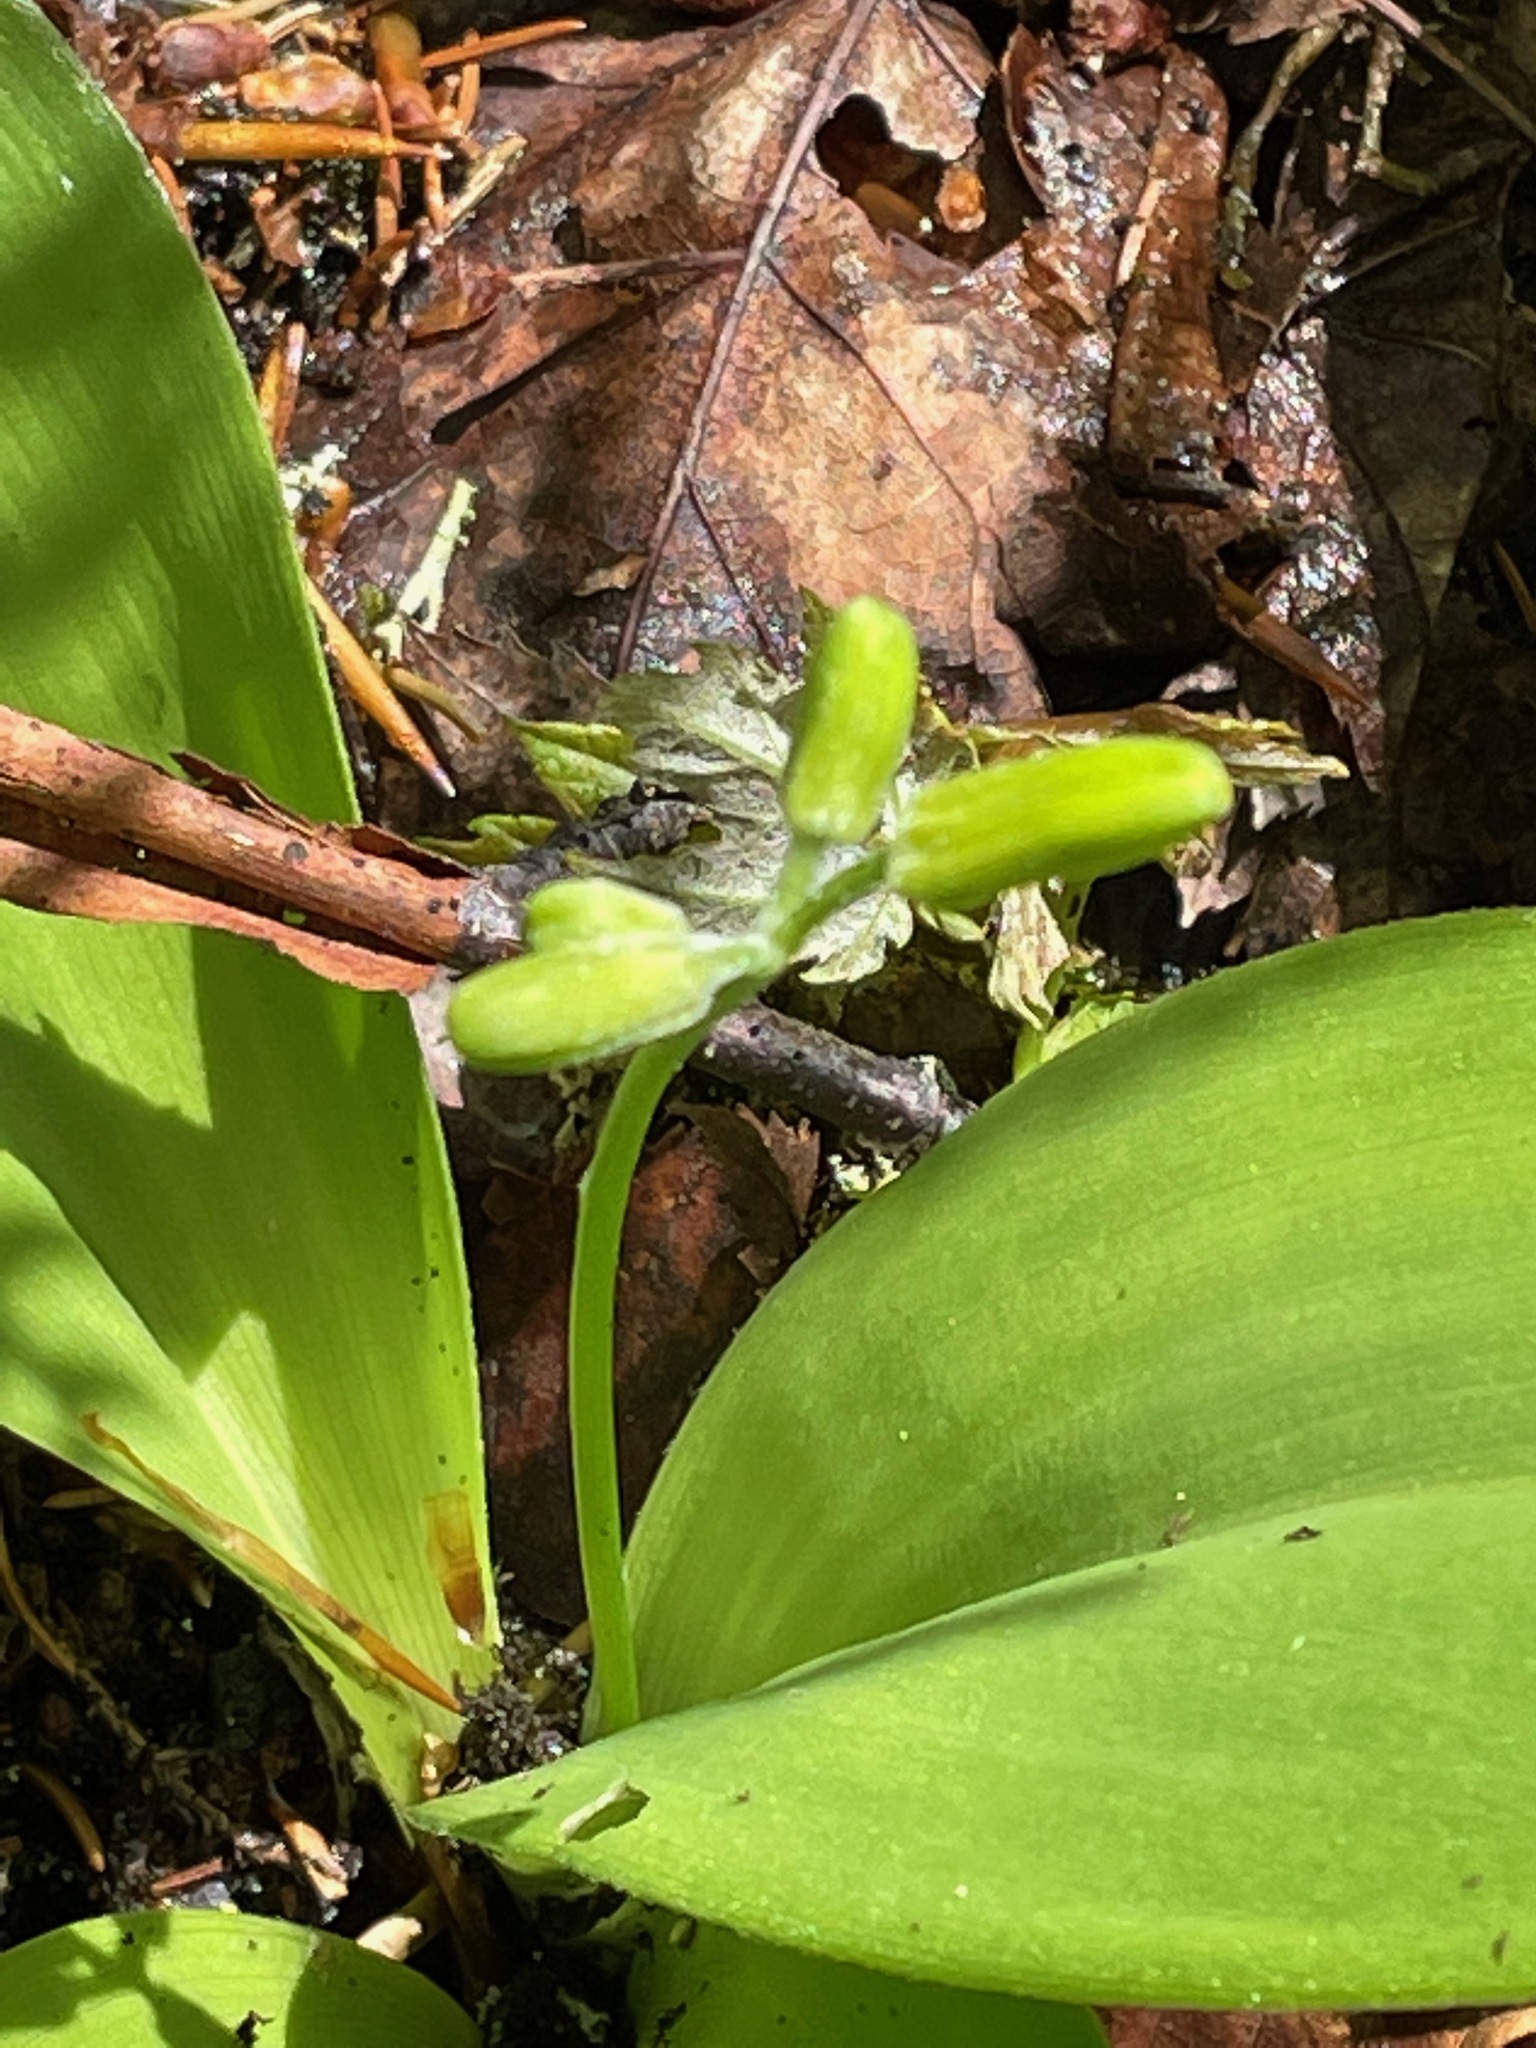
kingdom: Plantae
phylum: Tracheophyta
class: Liliopsida
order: Liliales
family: Liliaceae
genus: Clintonia
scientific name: Clintonia borealis
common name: Yellow clintonia
